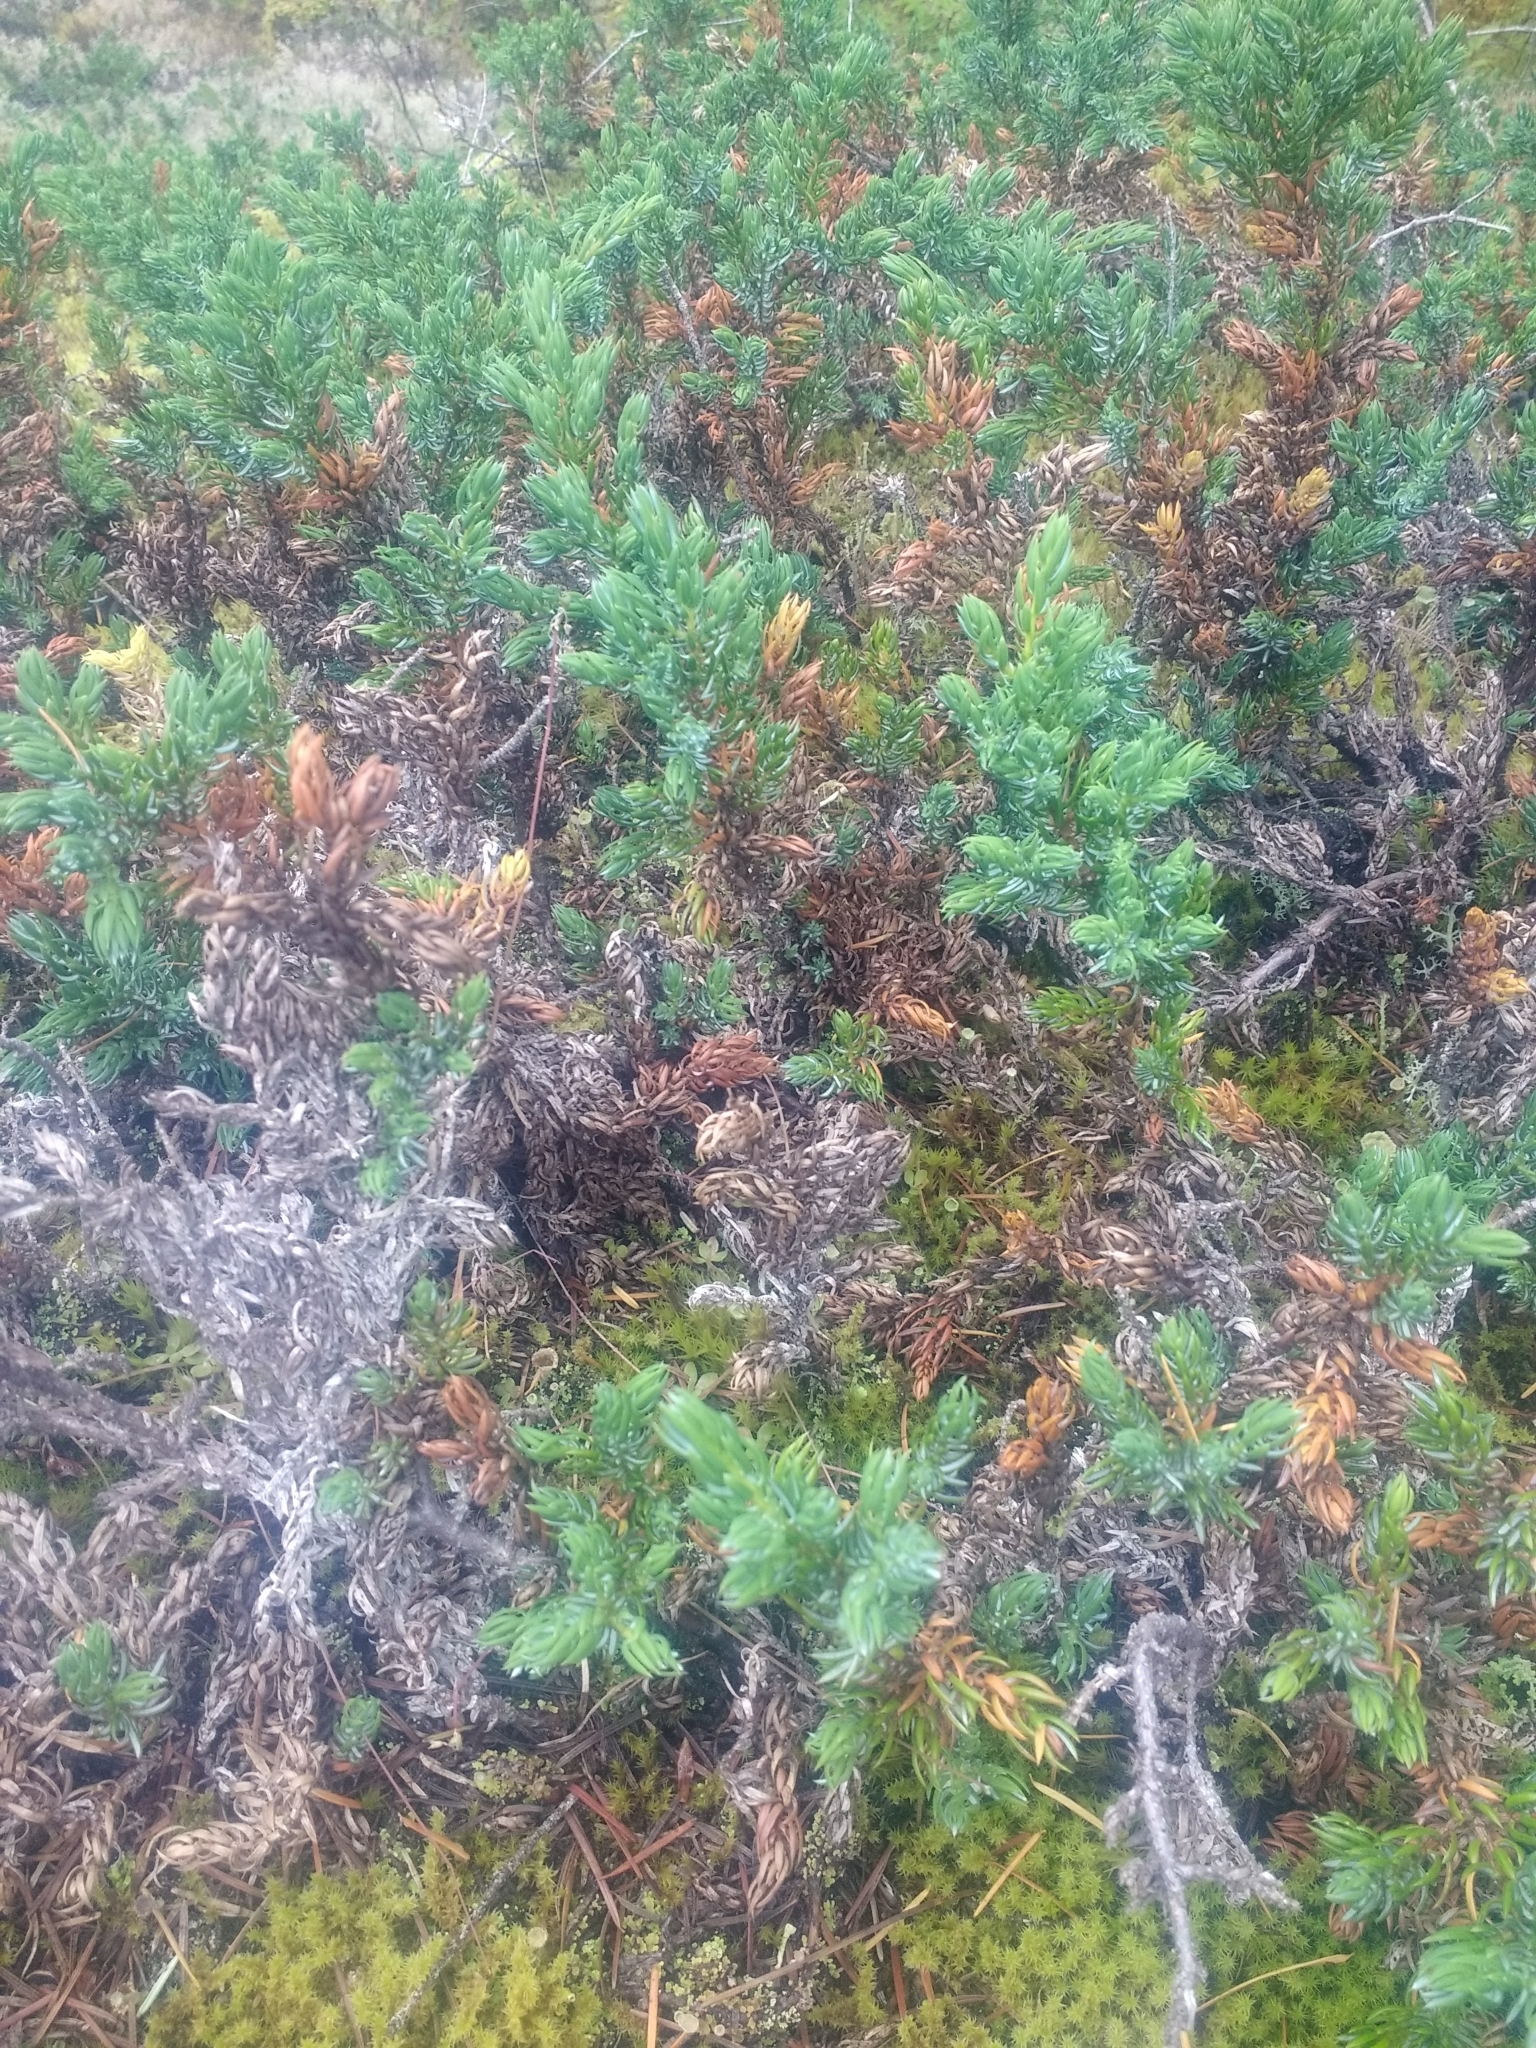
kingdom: Plantae
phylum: Tracheophyta
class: Pinopsida
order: Pinales
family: Cupressaceae
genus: Juniperus
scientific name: Juniperus communis
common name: Common juniper
